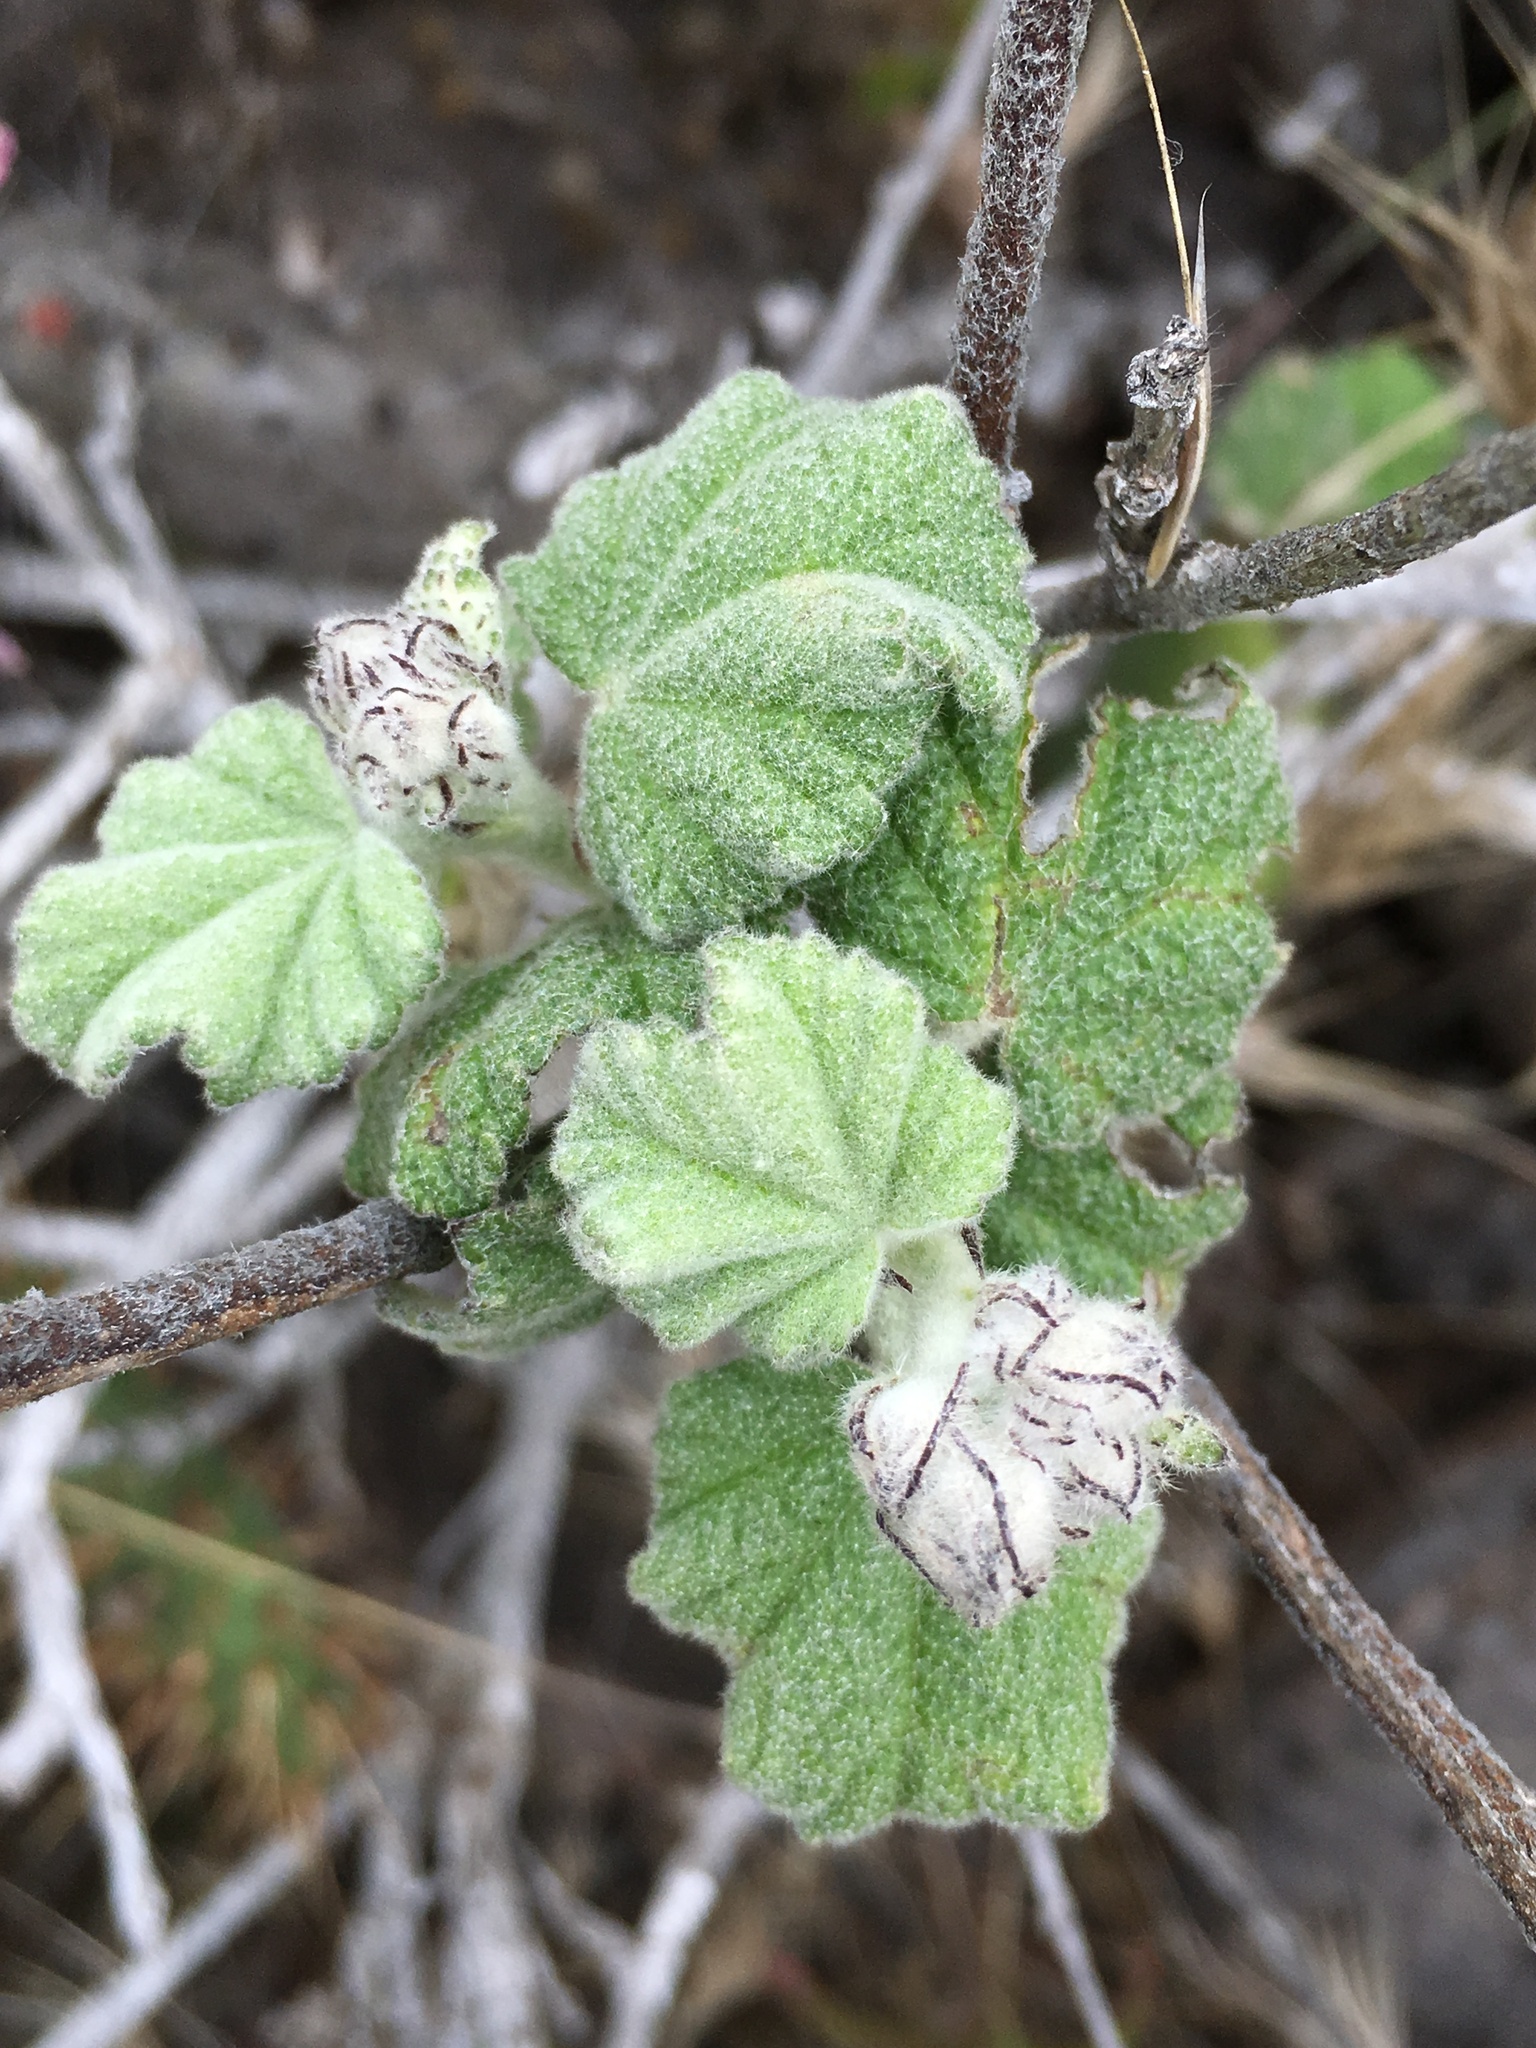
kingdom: Plantae
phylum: Tracheophyta
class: Magnoliopsida
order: Malvales
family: Malvaceae
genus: Malacothamnus
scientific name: Malacothamnus clementinus
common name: San clemente island bush-mallow
